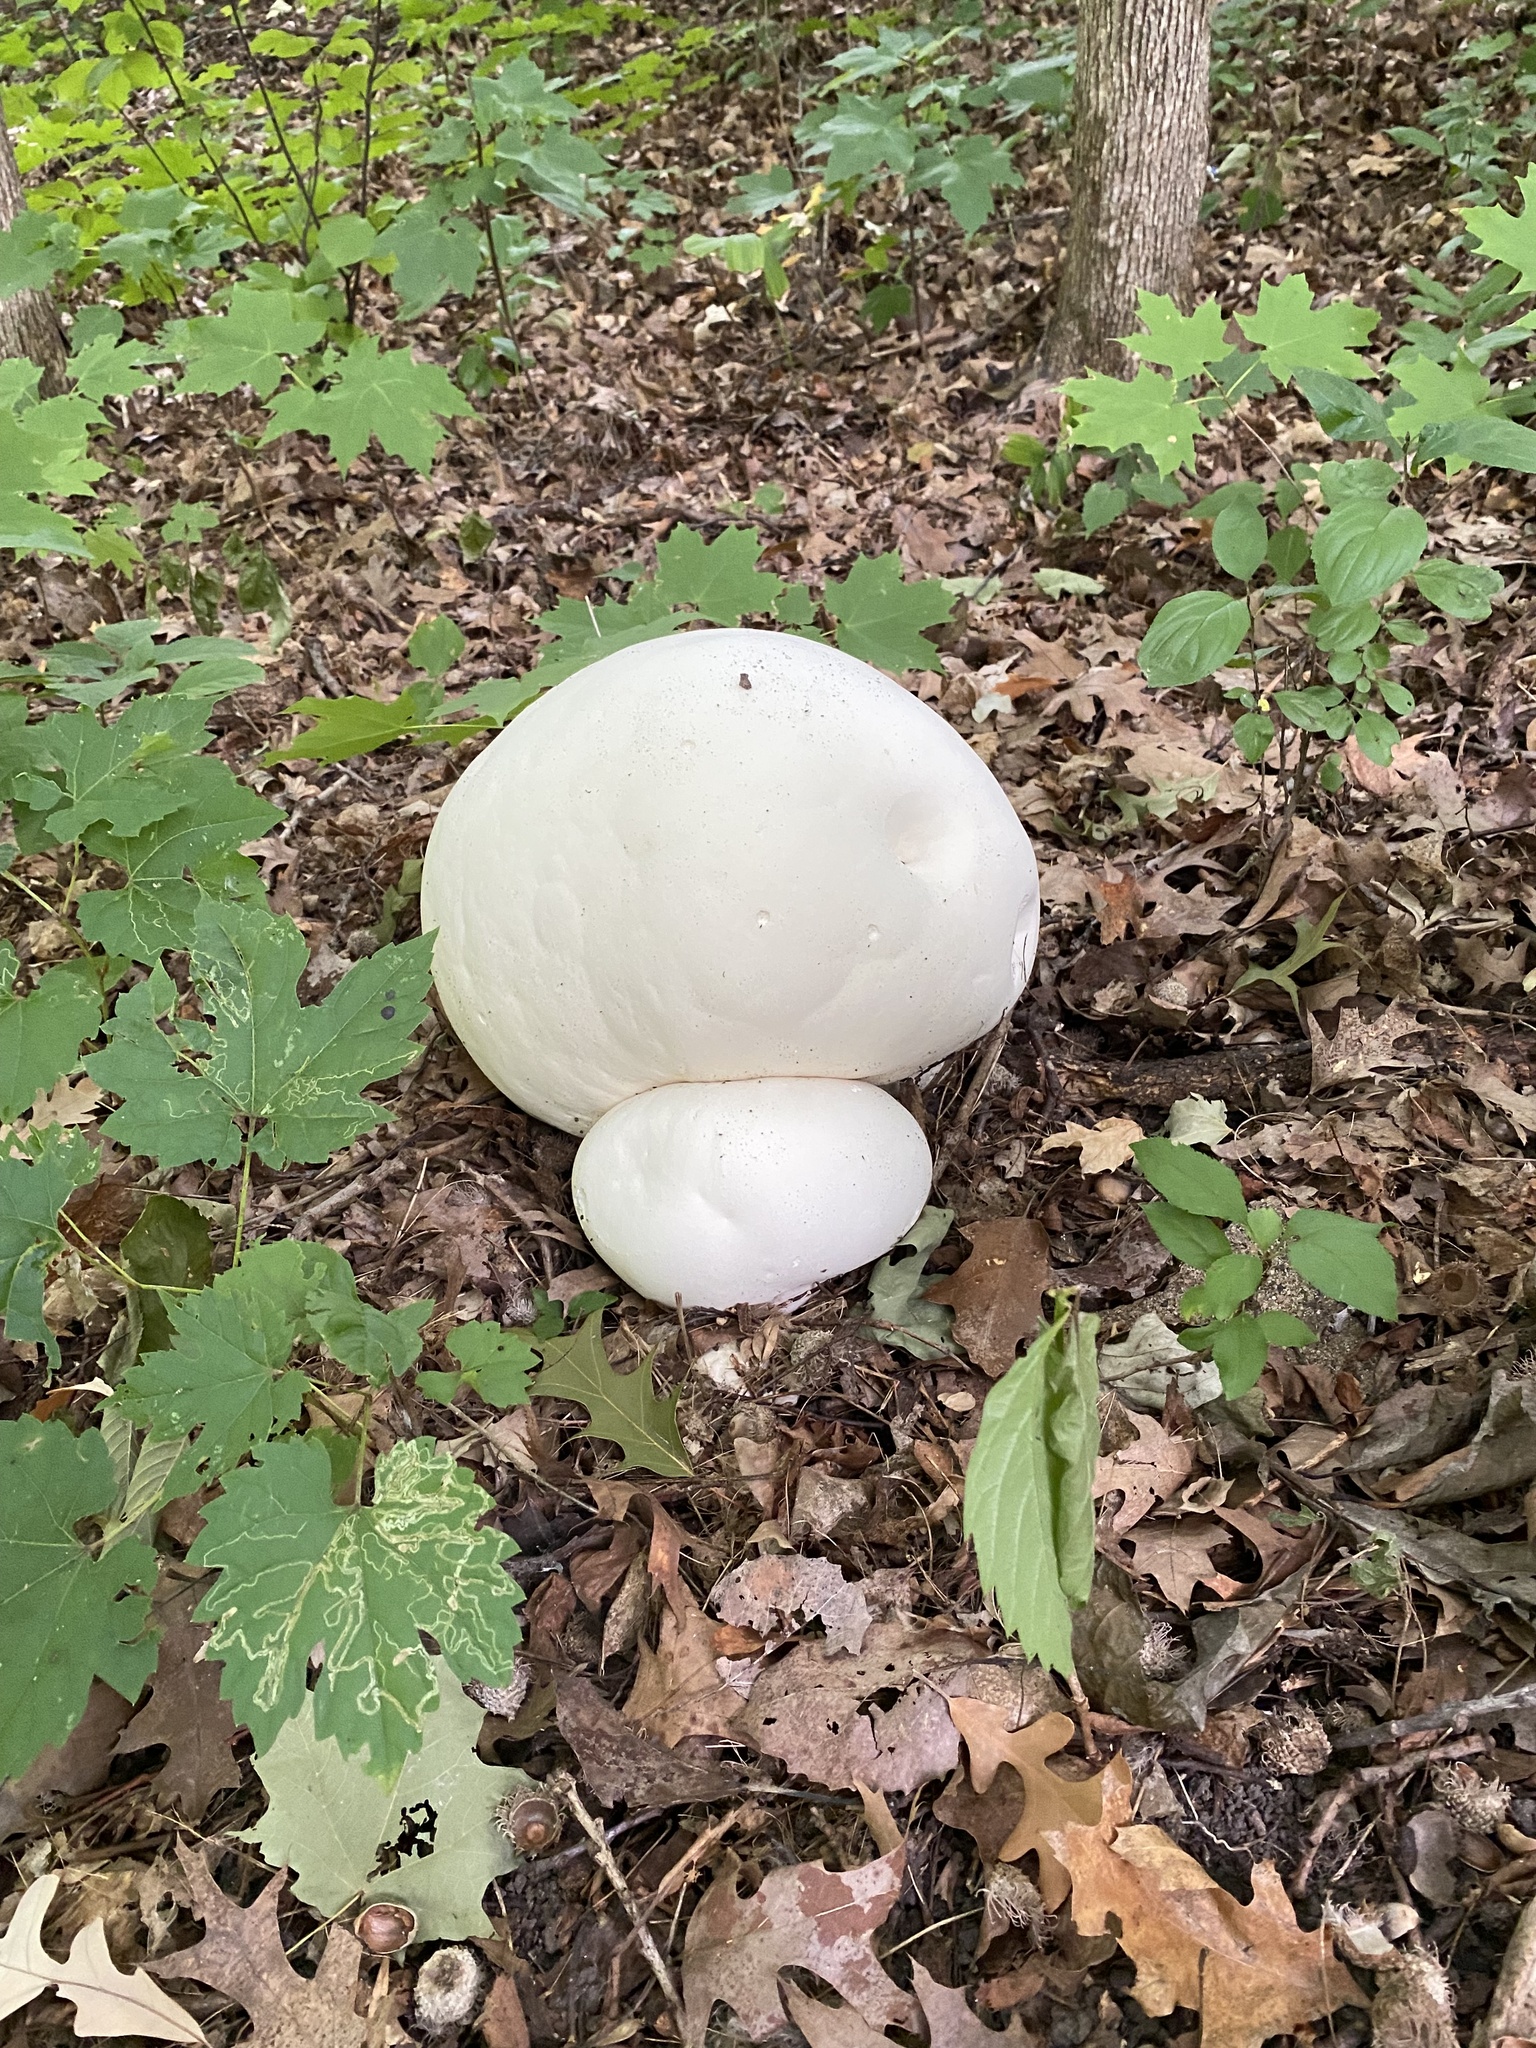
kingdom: Fungi
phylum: Basidiomycota
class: Agaricomycetes
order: Agaricales
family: Lycoperdaceae
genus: Calvatia
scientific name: Calvatia gigantea
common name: Giant puffball
